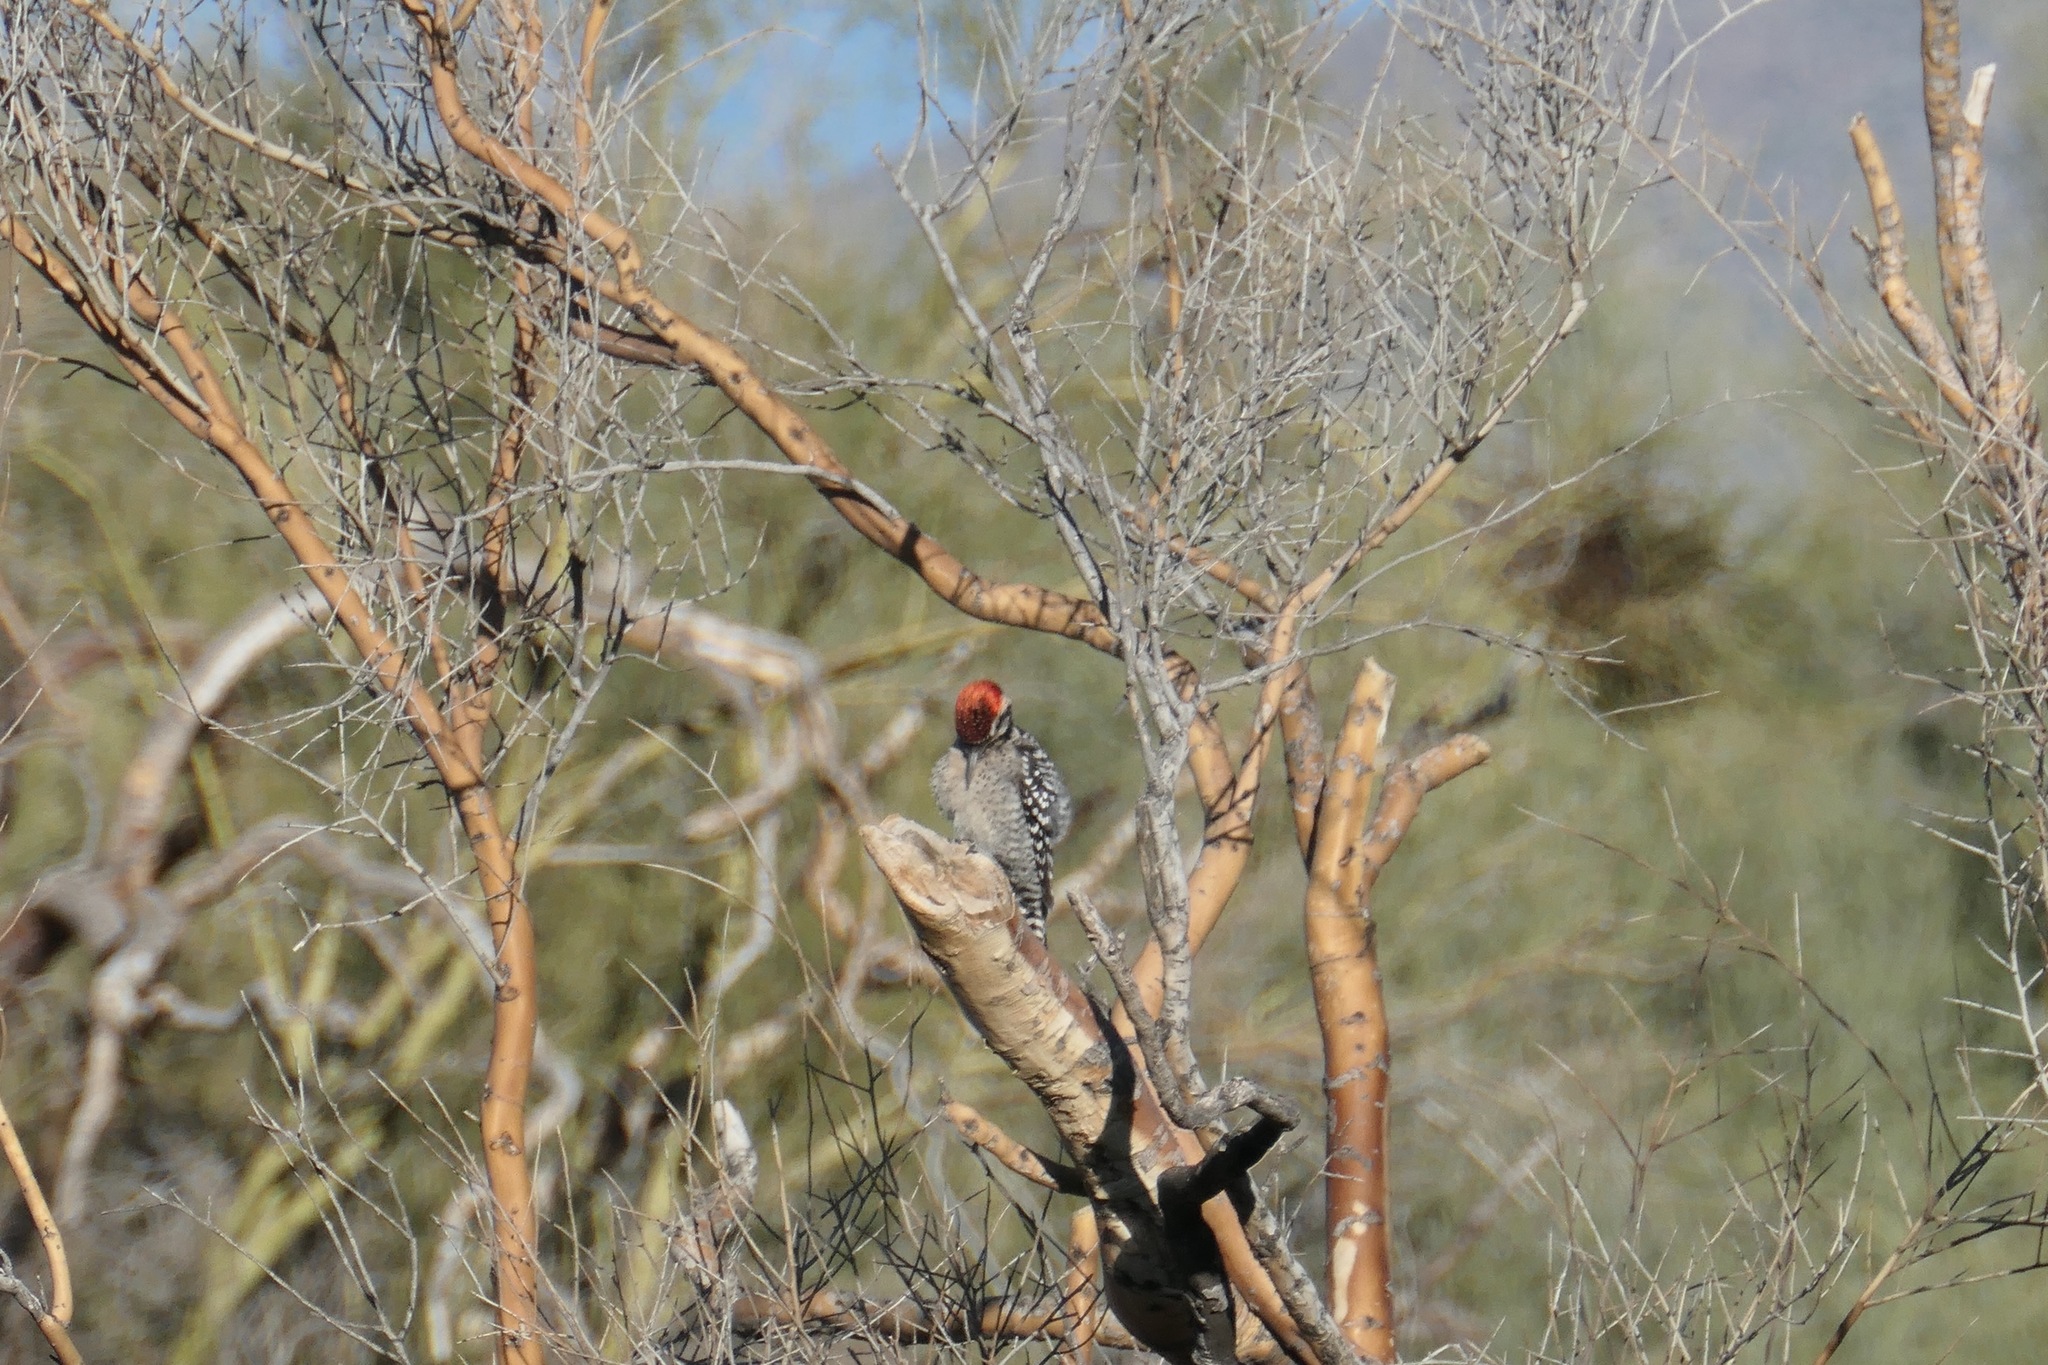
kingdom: Animalia
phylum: Chordata
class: Aves
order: Piciformes
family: Picidae
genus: Dryobates
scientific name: Dryobates scalaris
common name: Ladder-backed woodpecker
